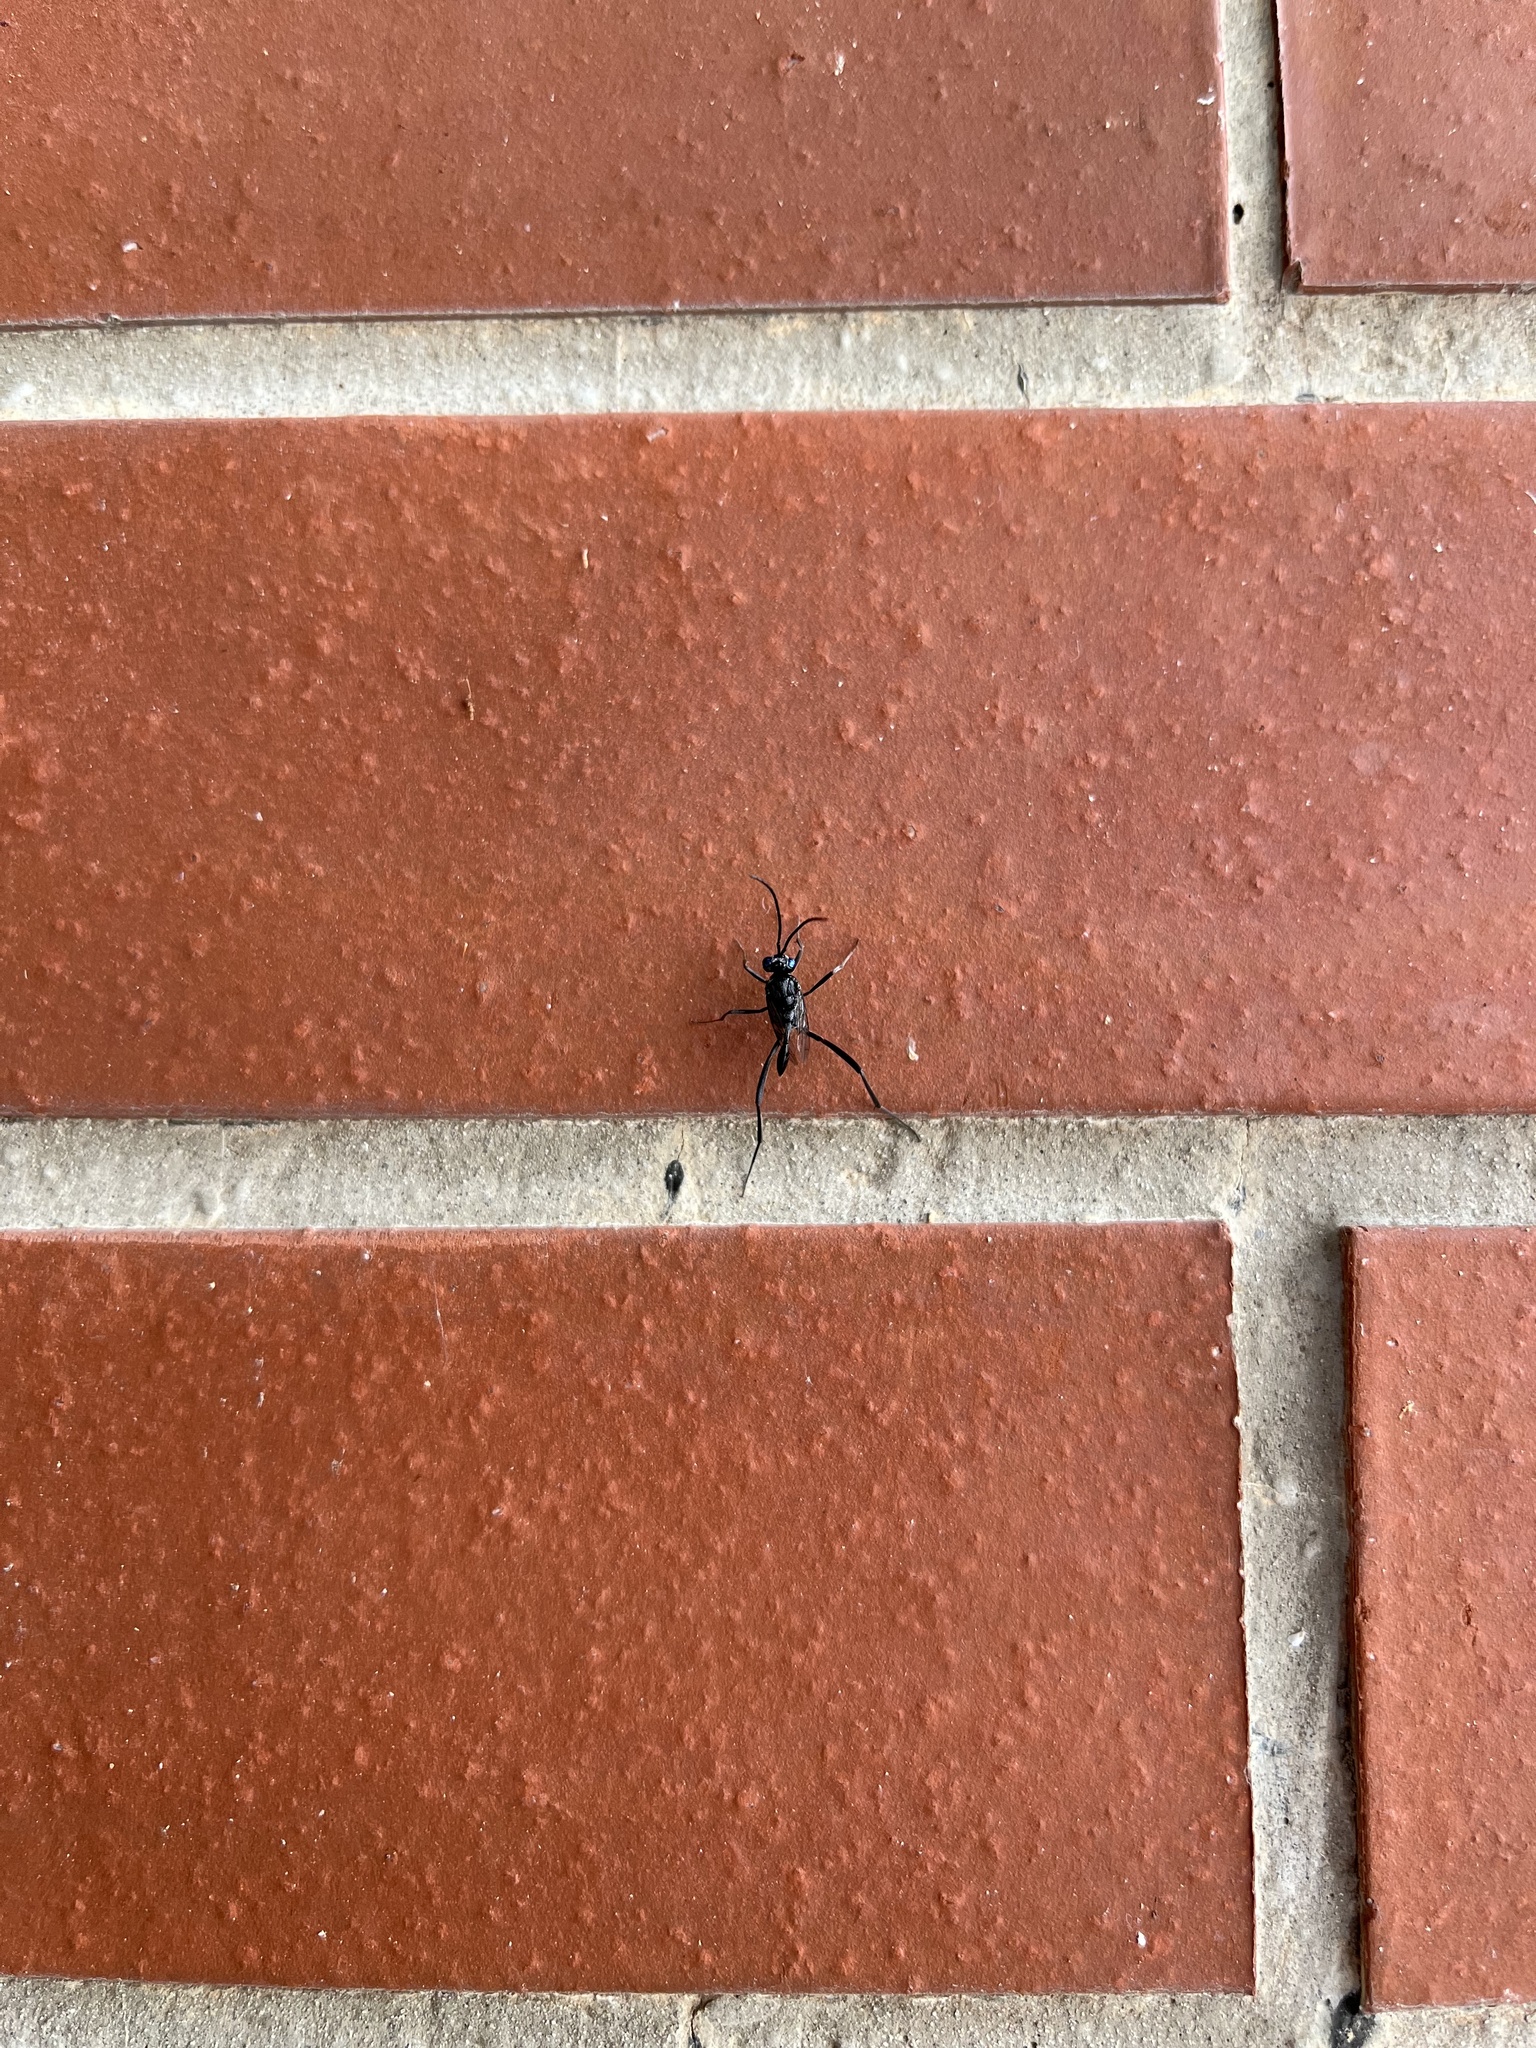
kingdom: Animalia
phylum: Arthropoda
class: Insecta
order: Hymenoptera
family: Evaniidae
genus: Evania
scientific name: Evania appendigaster
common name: Ensign wasp
